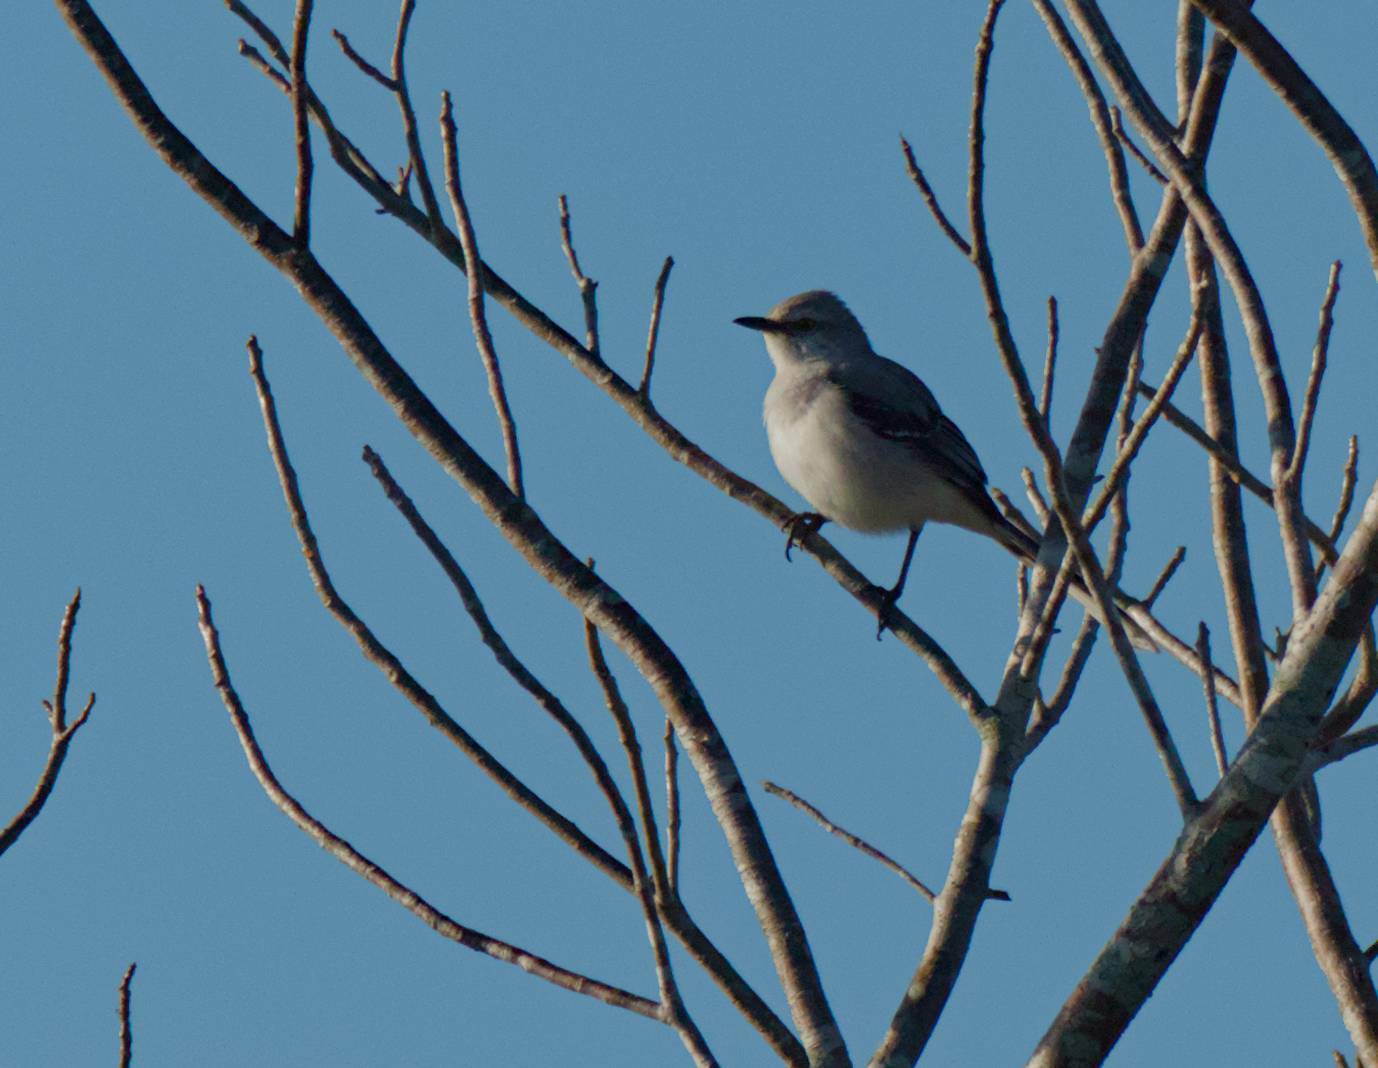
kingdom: Animalia
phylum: Chordata
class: Aves
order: Passeriformes
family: Mimidae
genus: Mimus
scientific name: Mimus gilvus
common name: Tropical mockingbird
